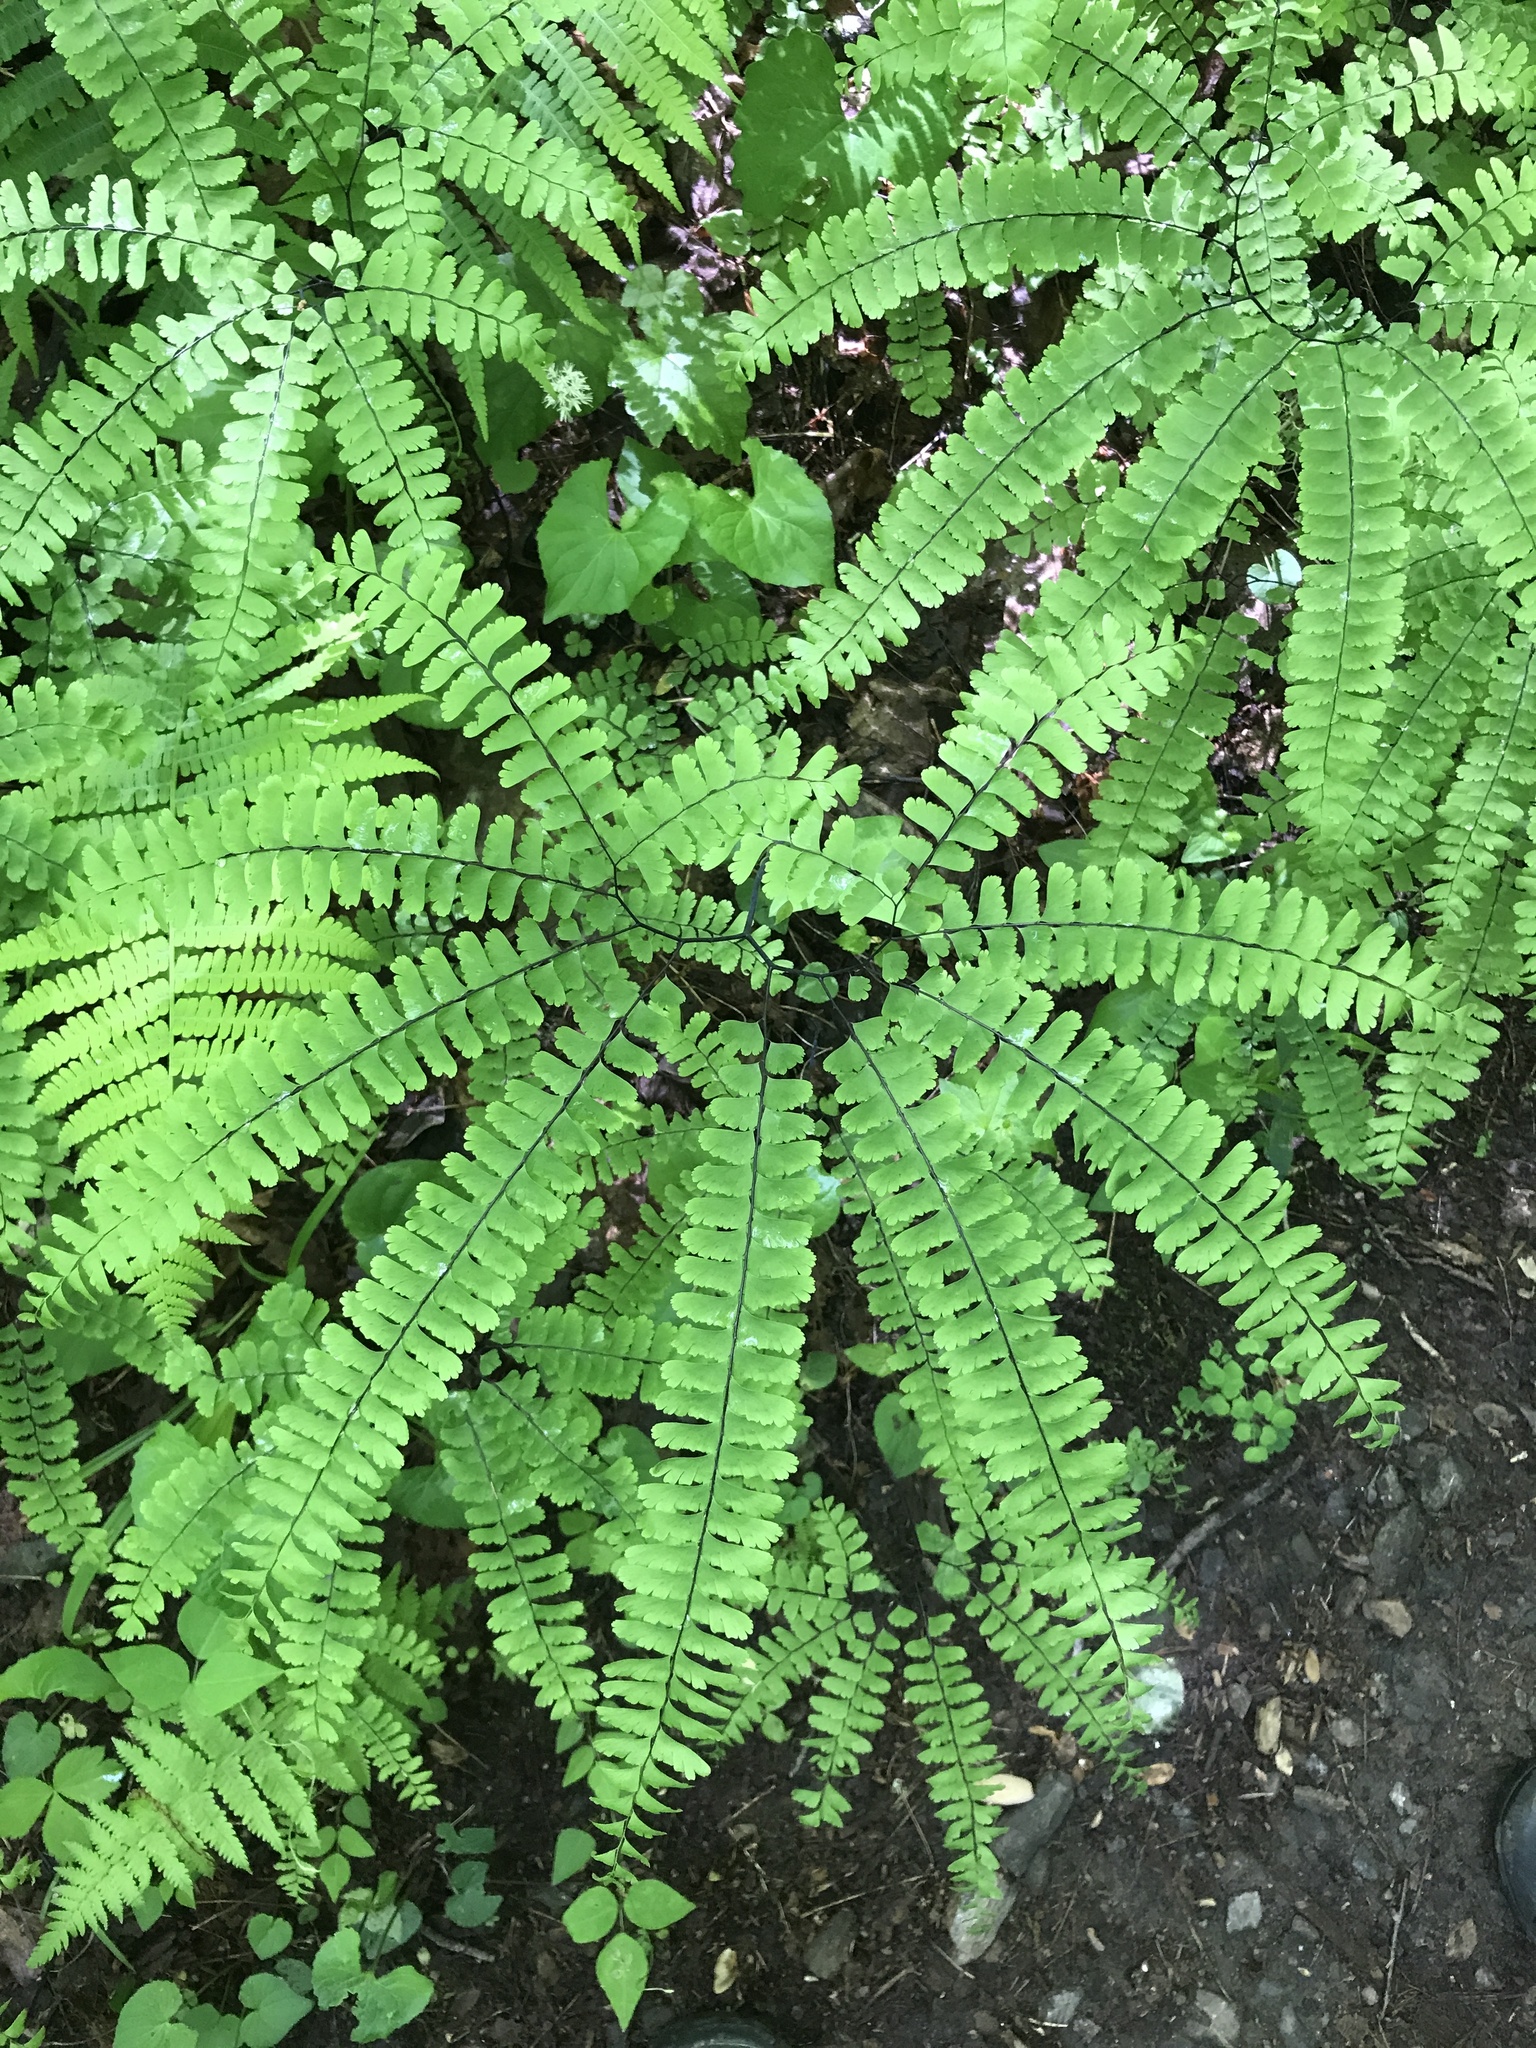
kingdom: Plantae
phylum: Tracheophyta
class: Polypodiopsida
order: Polypodiales
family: Pteridaceae
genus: Adiantum
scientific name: Adiantum pedatum
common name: Five-finger fern
